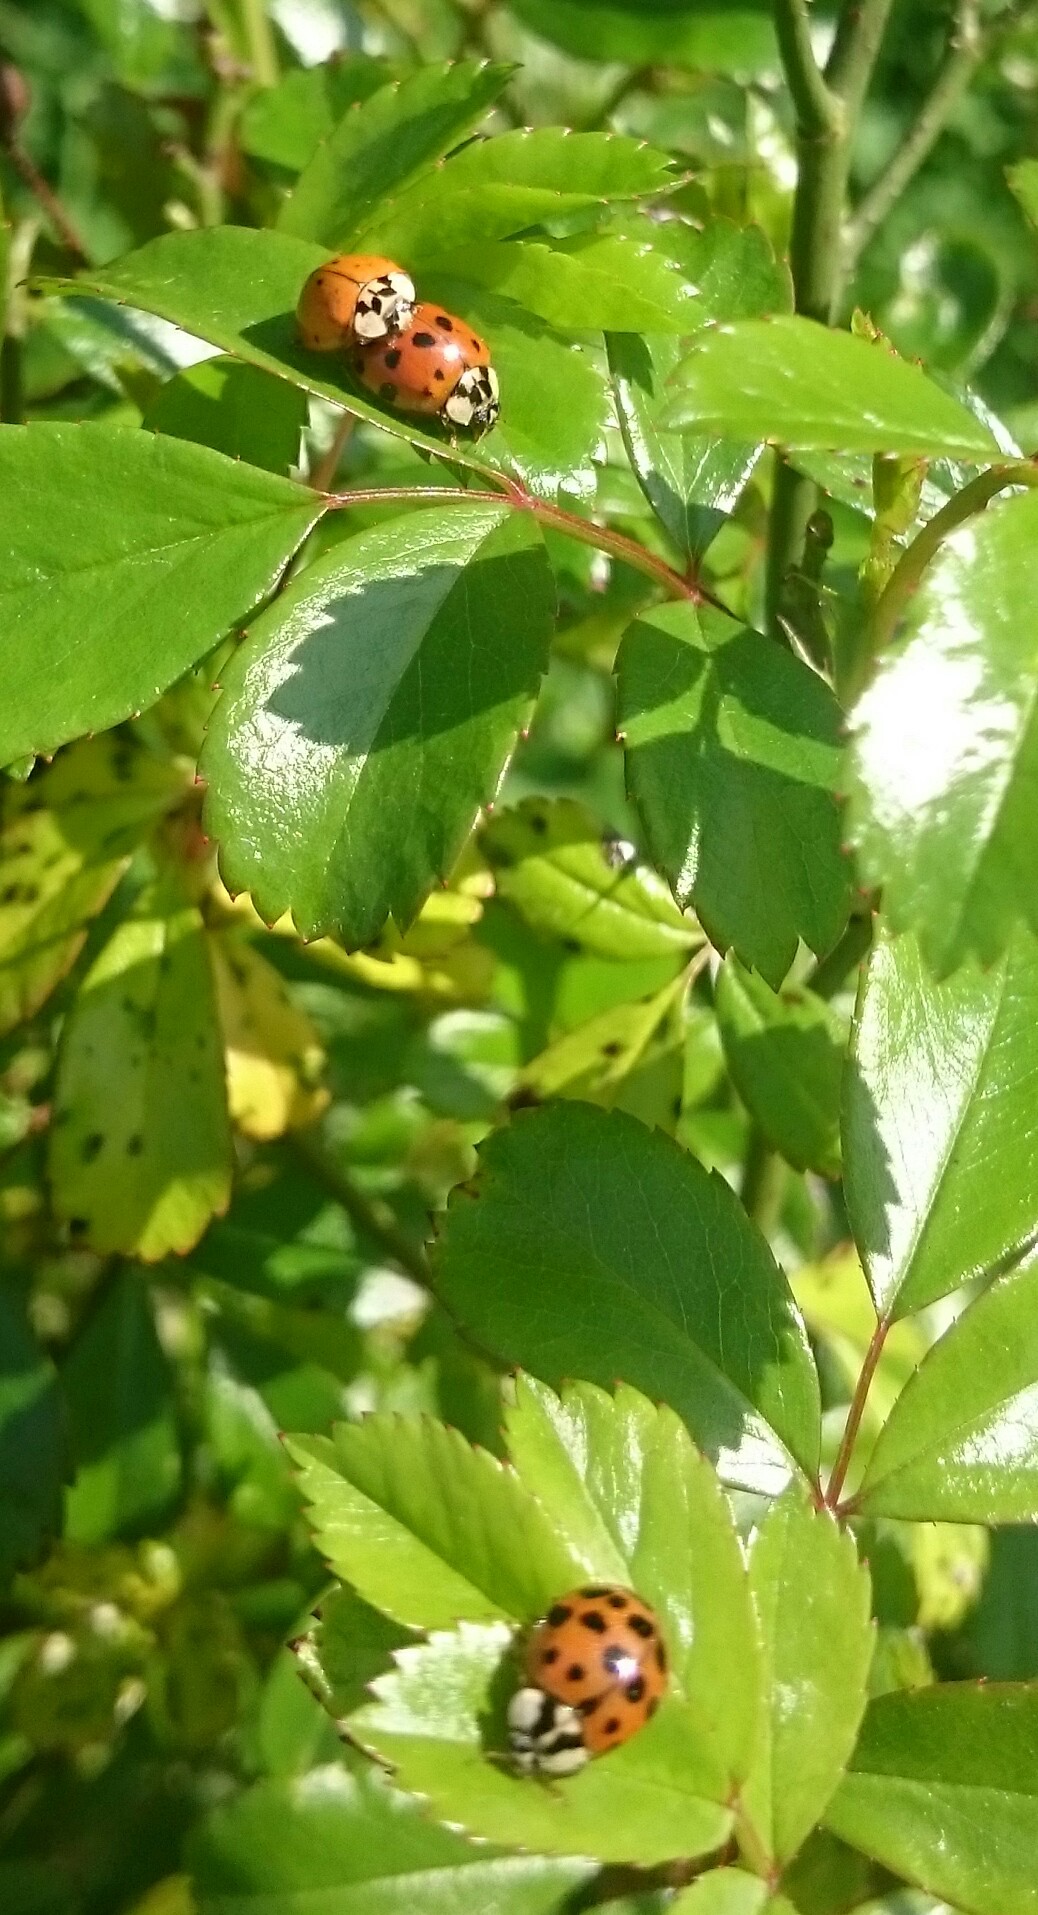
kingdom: Animalia
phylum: Arthropoda
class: Insecta
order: Coleoptera
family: Coccinellidae
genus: Harmonia
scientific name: Harmonia axyridis
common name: Harlequin ladybird
